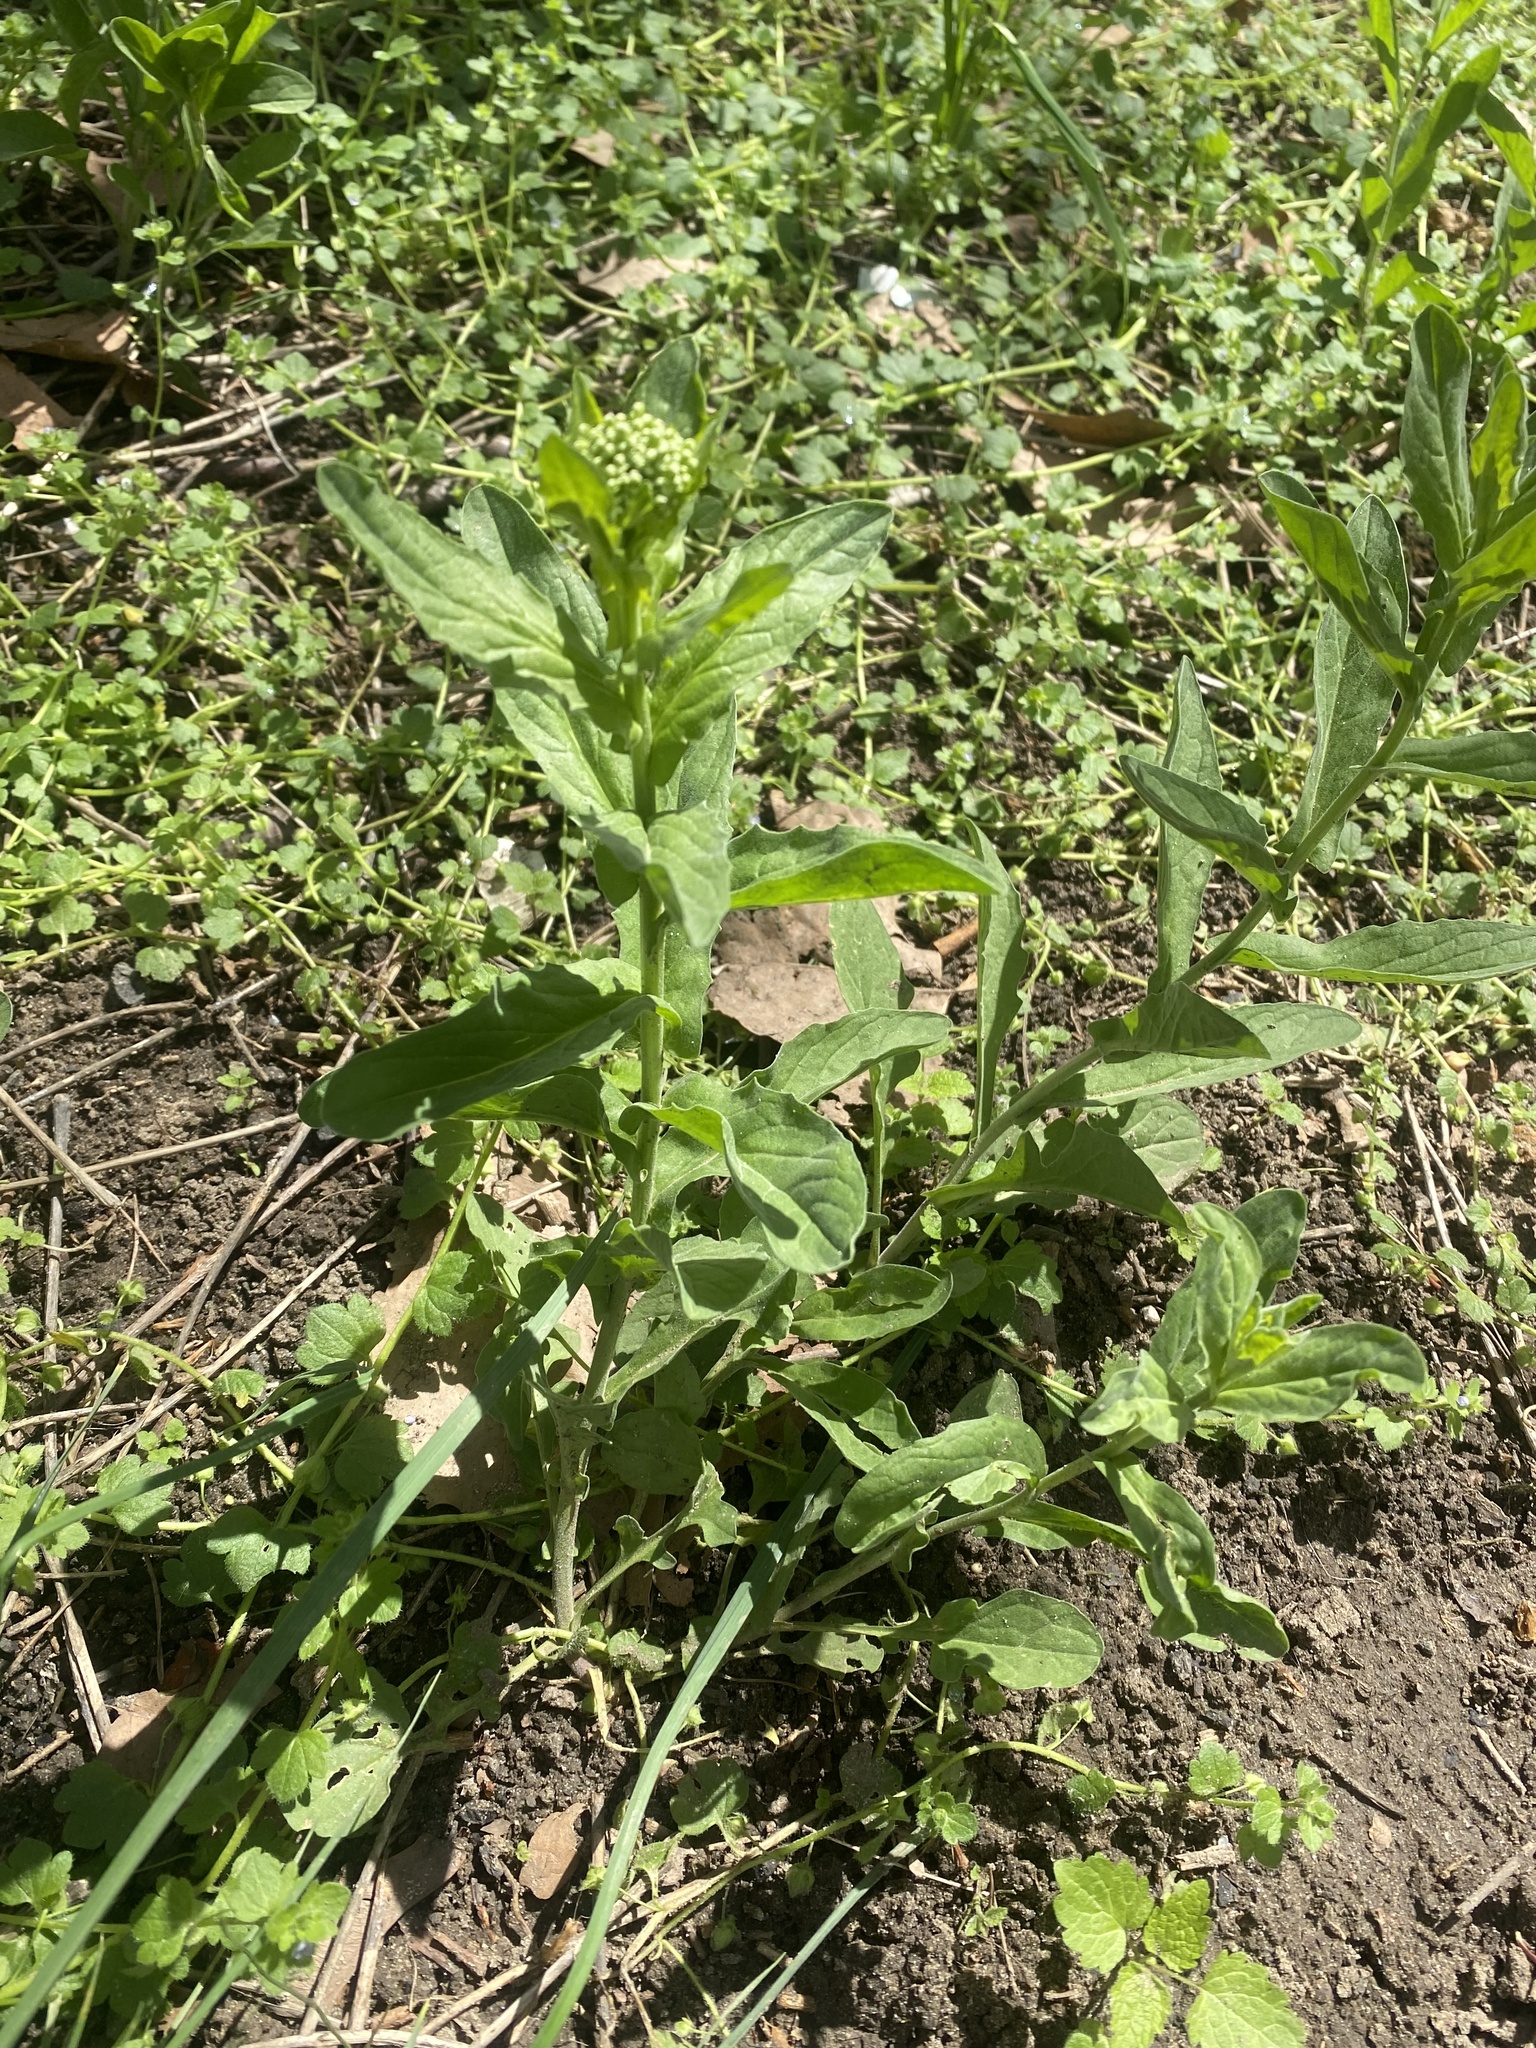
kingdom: Plantae
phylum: Tracheophyta
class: Magnoliopsida
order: Brassicales
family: Brassicaceae
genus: Lepidium
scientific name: Lepidium draba
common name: Hoary cress
